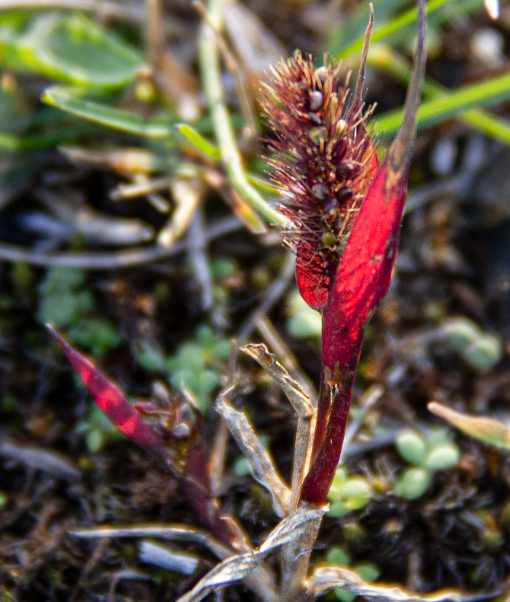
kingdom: Plantae
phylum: Tracheophyta
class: Liliopsida
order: Poales
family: Poaceae
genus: Setaria
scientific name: Setaria viridis
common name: Green bristlegrass
